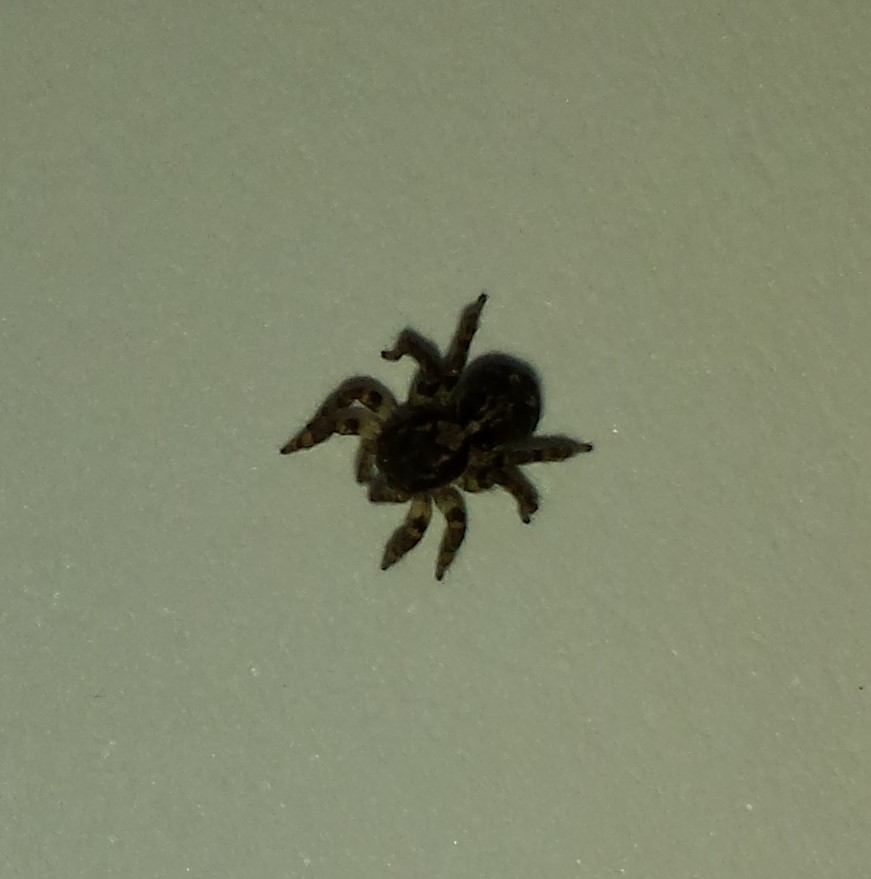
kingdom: Animalia
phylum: Arthropoda
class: Arachnida
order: Araneae
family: Salticidae
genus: Naphrys
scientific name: Naphrys pulex
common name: Flea jumping spider
